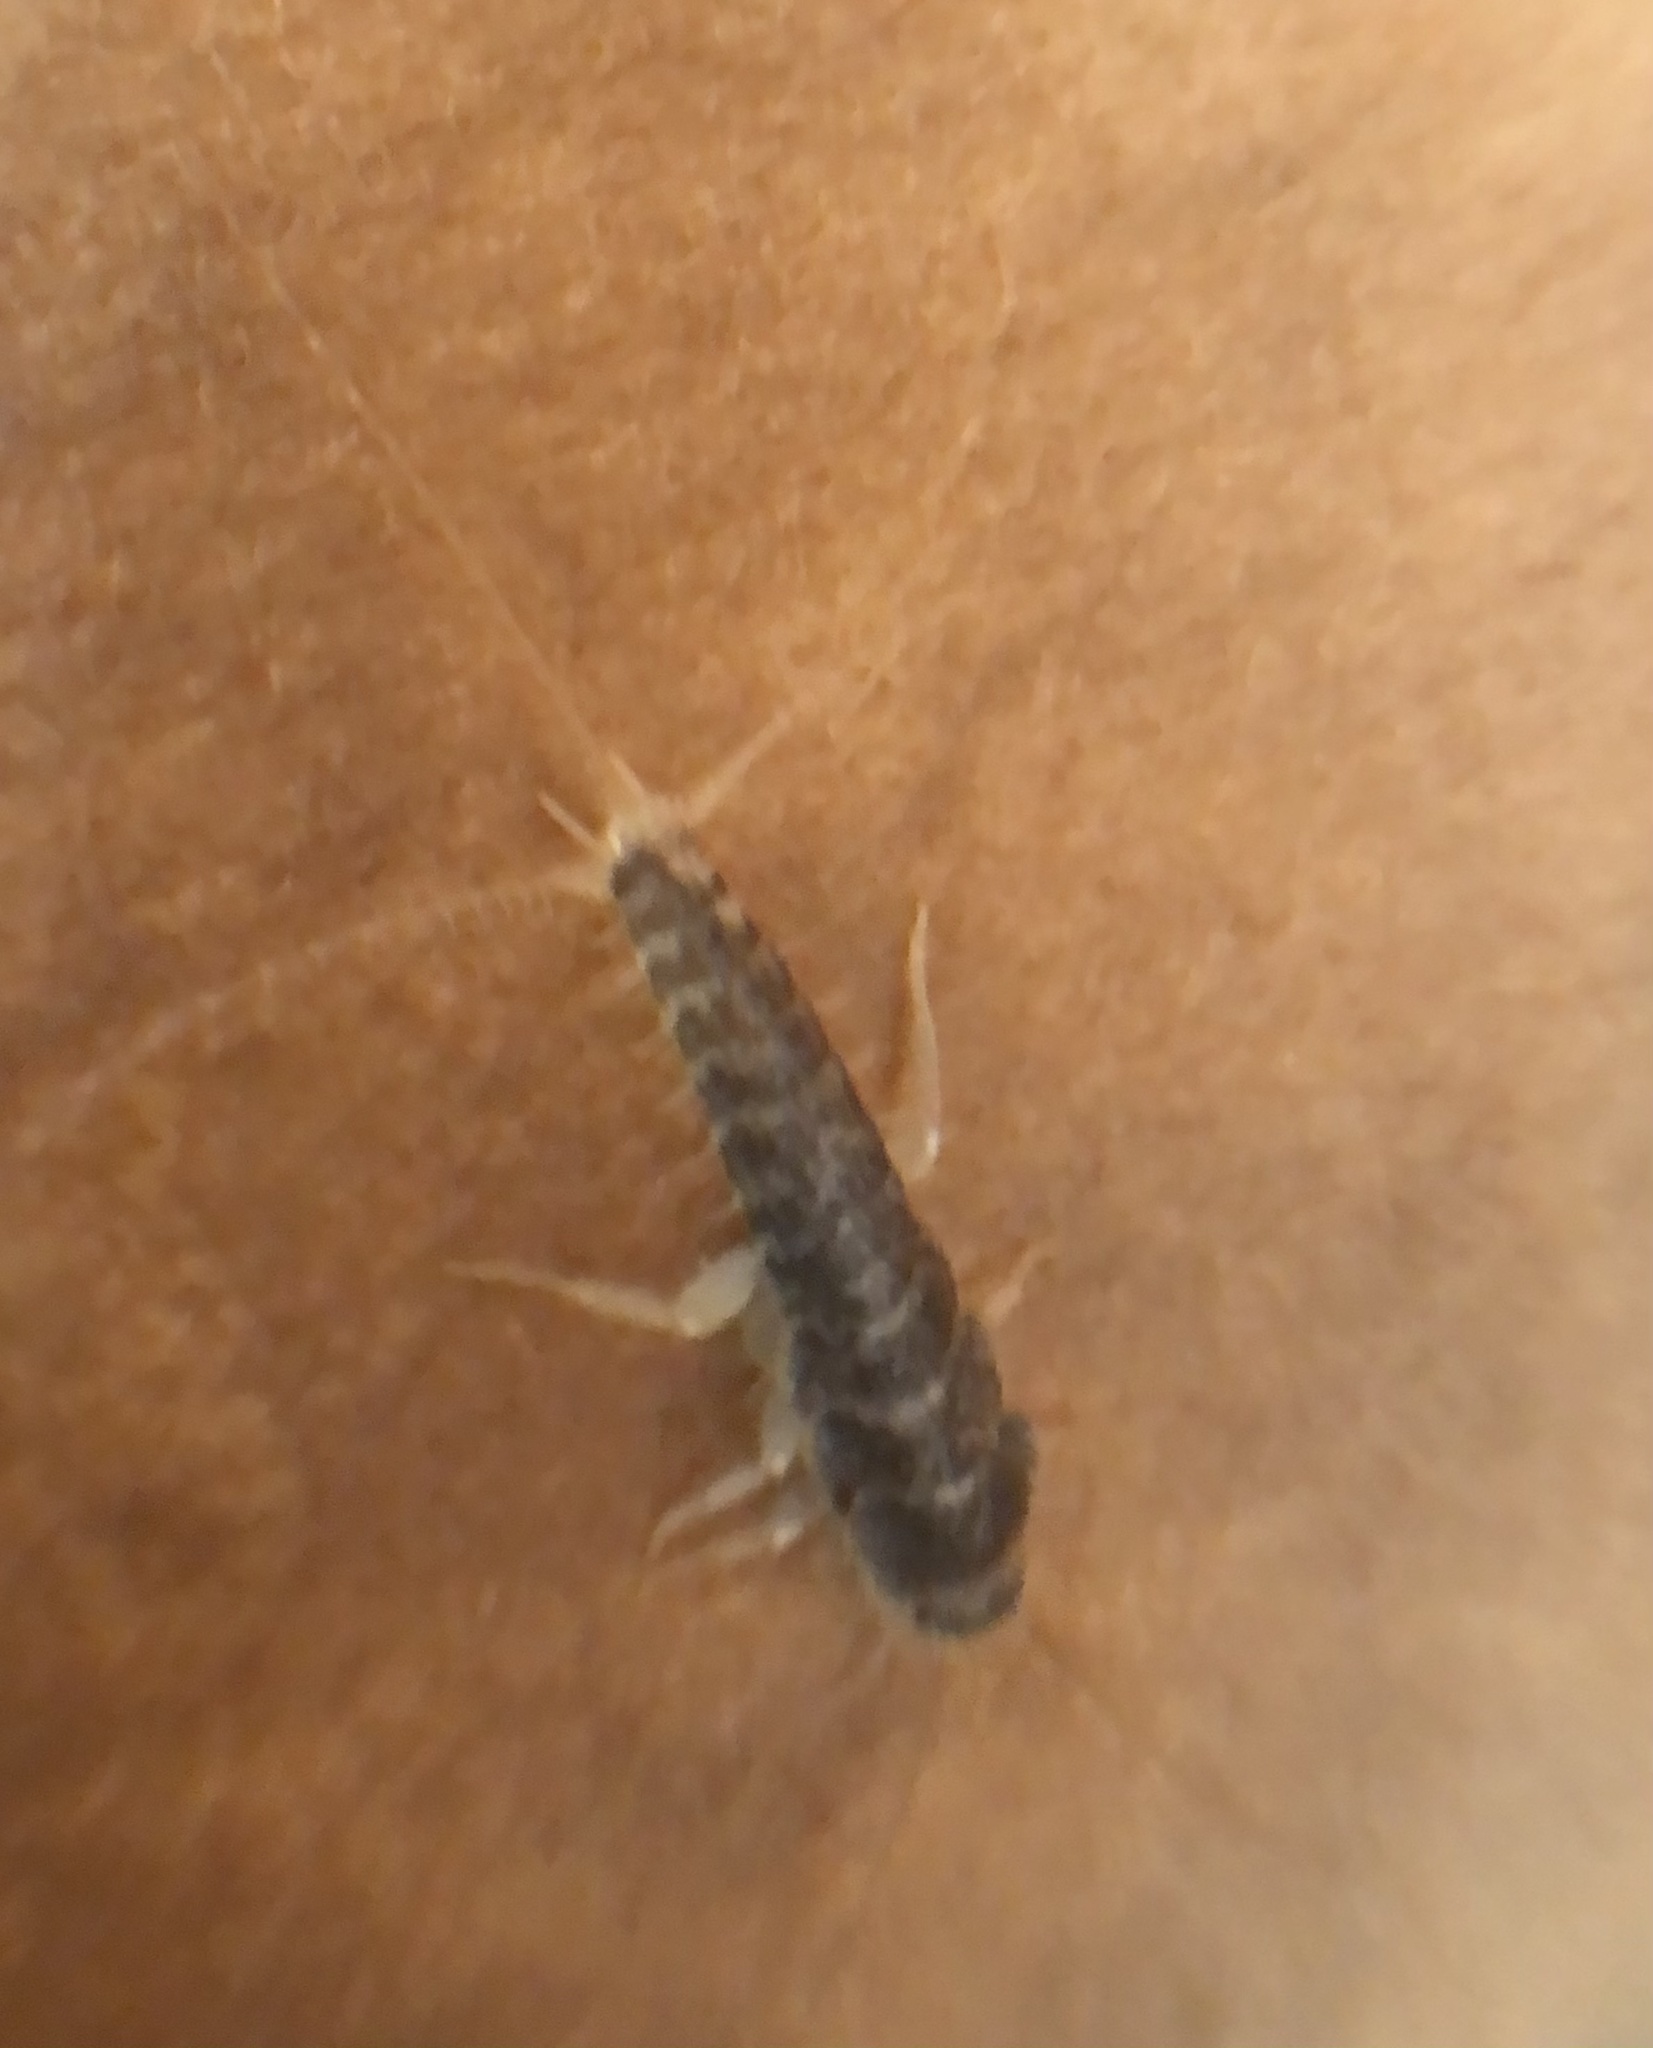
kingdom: Animalia
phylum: Arthropoda
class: Insecta
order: Zygentoma
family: Lepismatidae
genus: Ctenolepisma
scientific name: Ctenolepisma longicaudatum
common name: Silverfish
